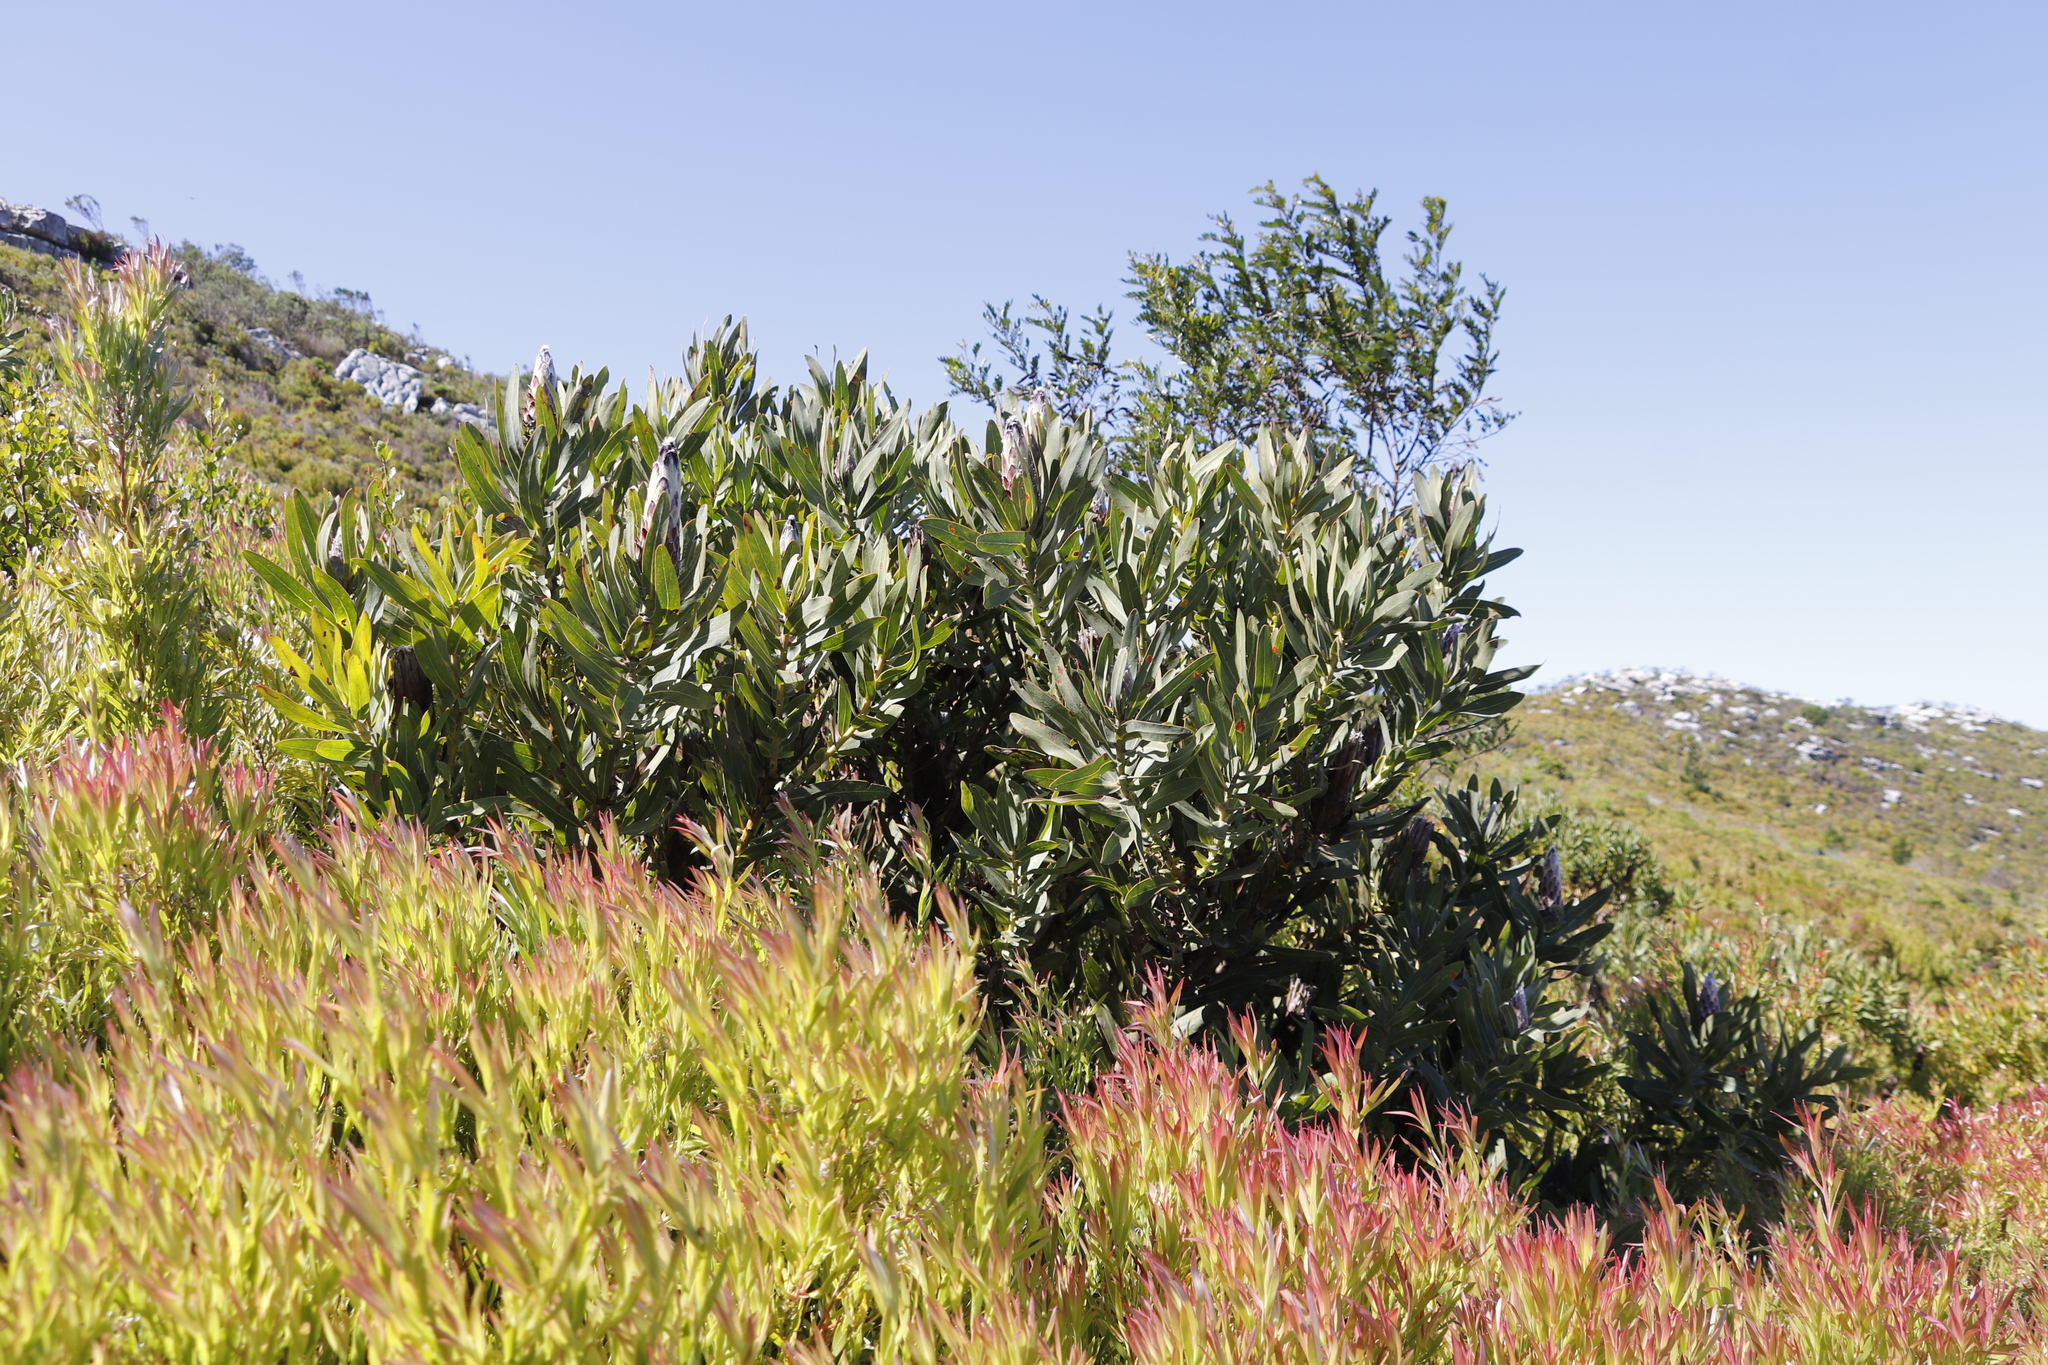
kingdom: Plantae
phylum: Tracheophyta
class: Magnoliopsida
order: Proteales
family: Proteaceae
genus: Protea
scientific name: Protea lepidocarpodendron
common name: Black-bearded protea
